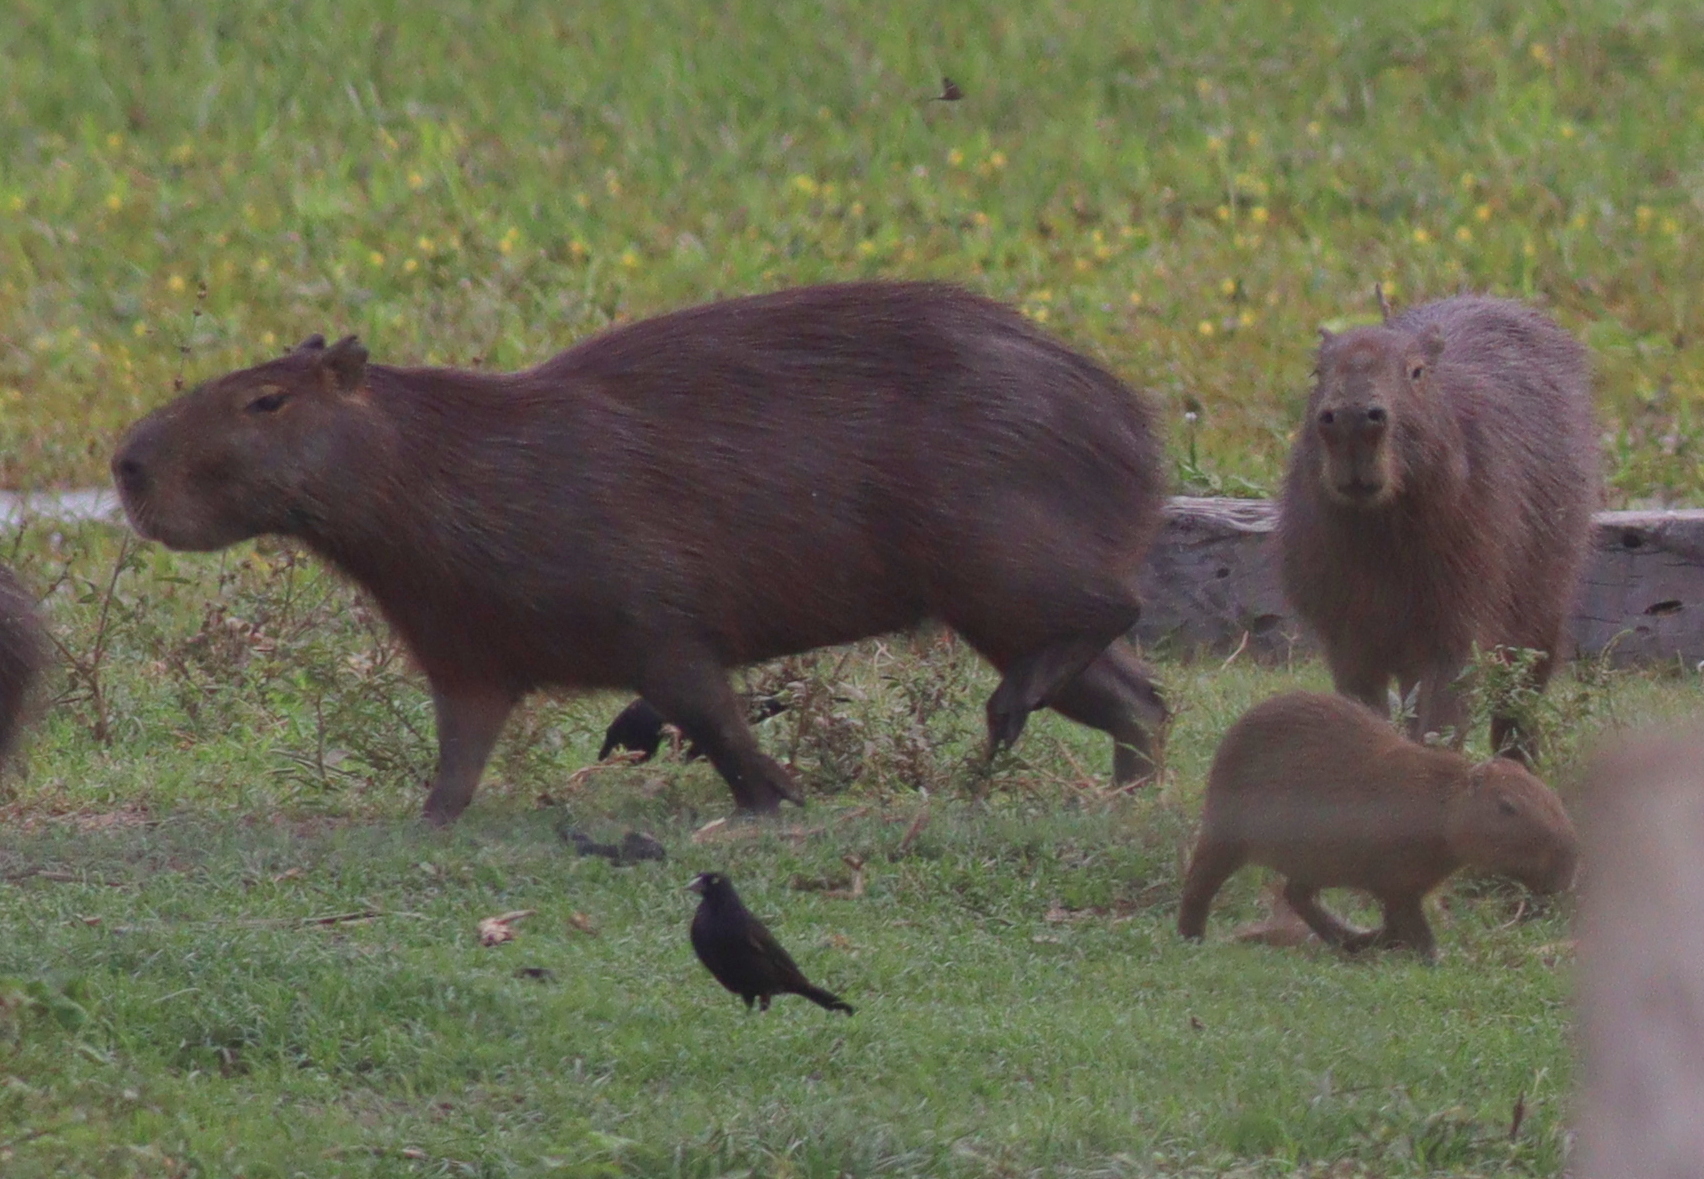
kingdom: Animalia
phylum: Chordata
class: Mammalia
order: Rodentia
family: Caviidae
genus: Hydrochoerus
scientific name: Hydrochoerus hydrochaeris
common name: Capybara
